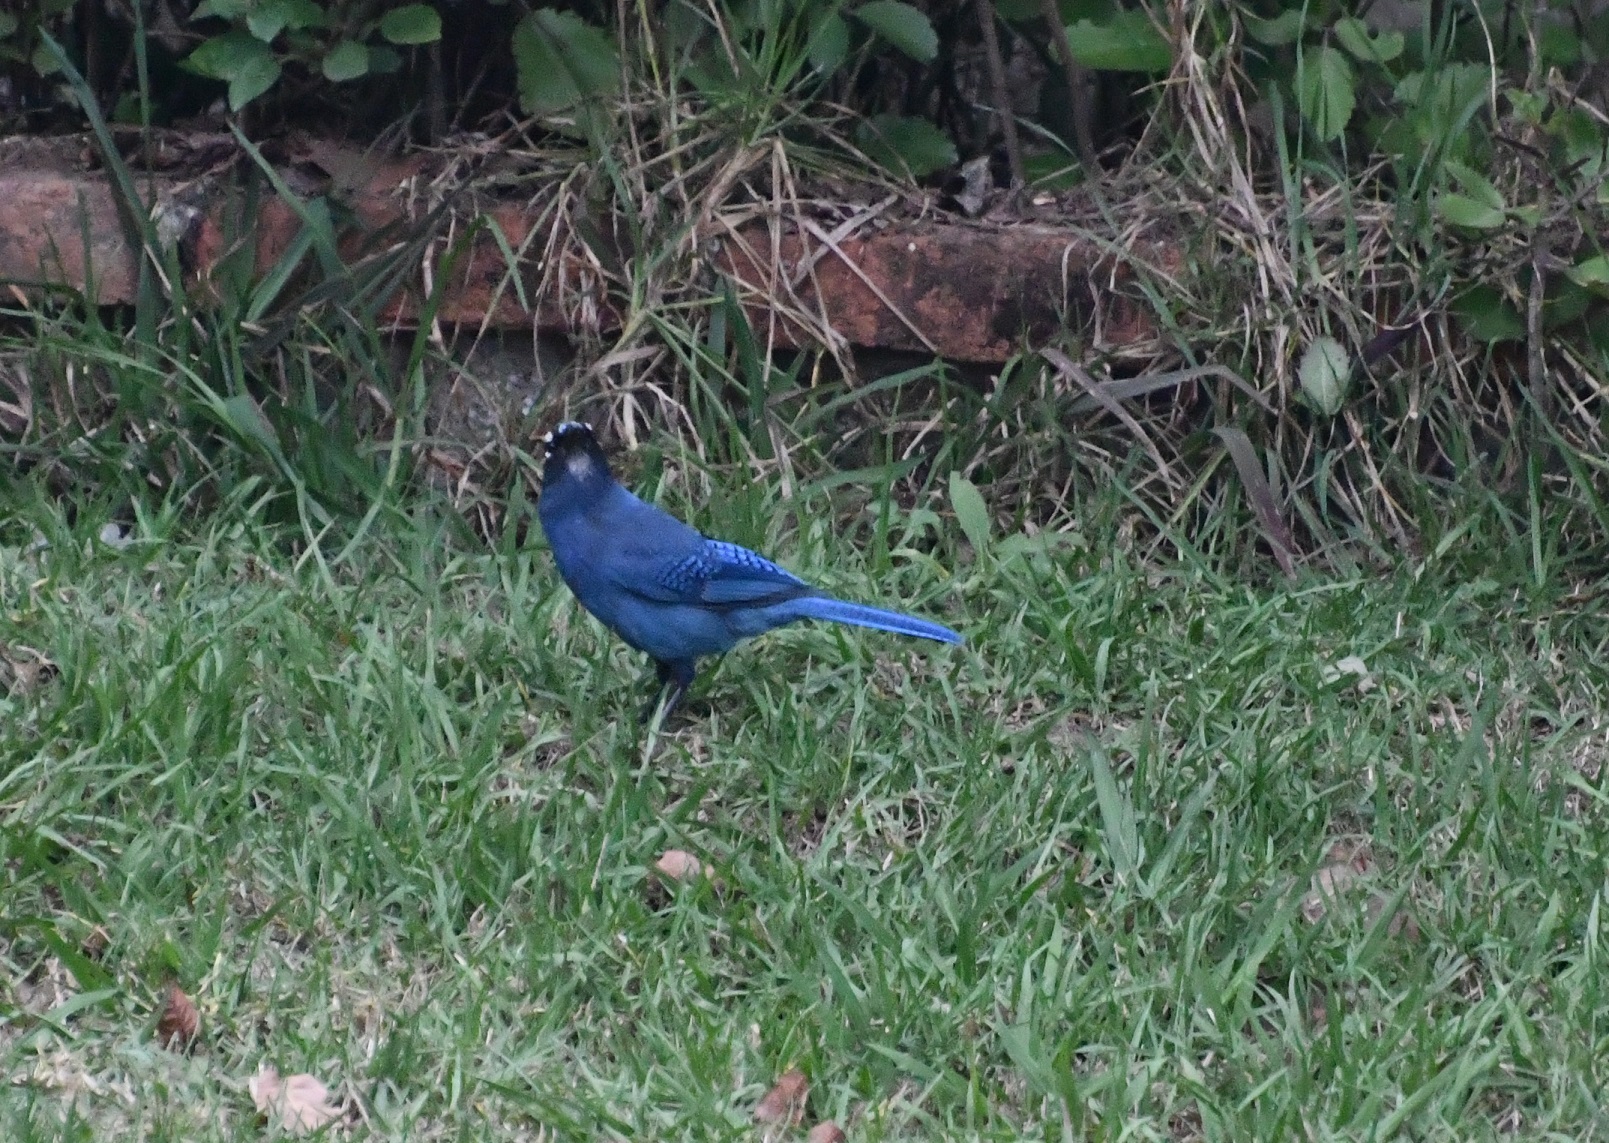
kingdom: Animalia
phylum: Chordata
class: Aves
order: Passeriformes
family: Corvidae
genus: Cyanocitta
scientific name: Cyanocitta stelleri
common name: Steller's jay
